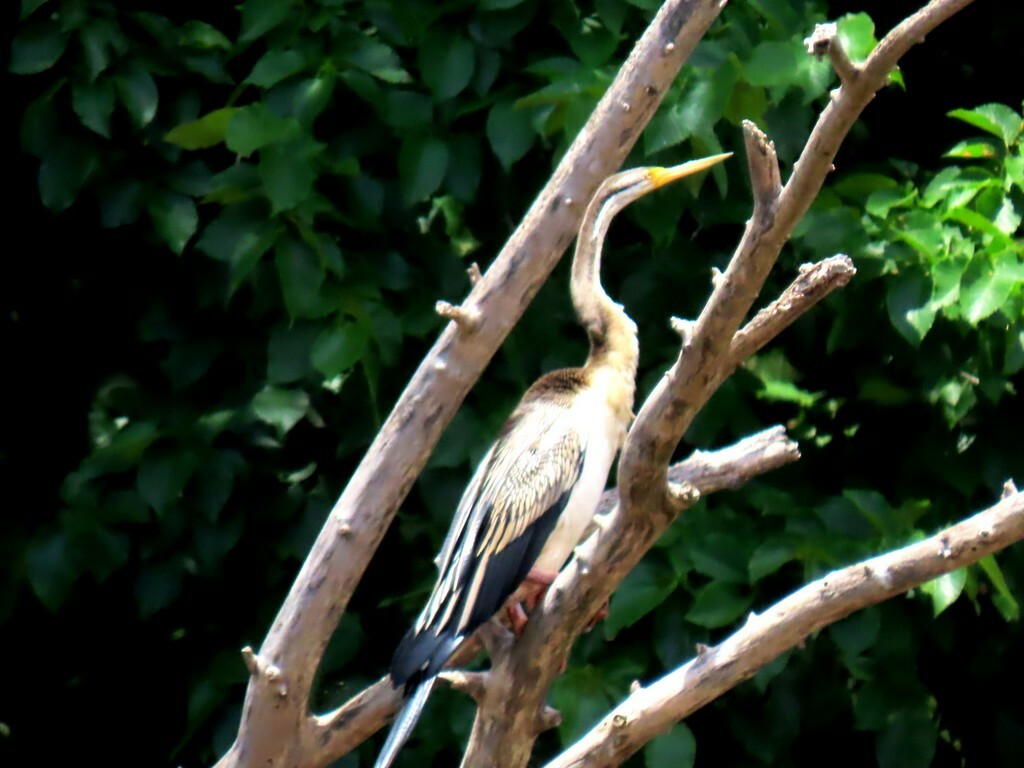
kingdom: Animalia
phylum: Chordata
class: Aves
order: Suliformes
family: Anhingidae
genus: Anhinga
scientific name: Anhinga novaehollandiae
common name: Australasian darter
